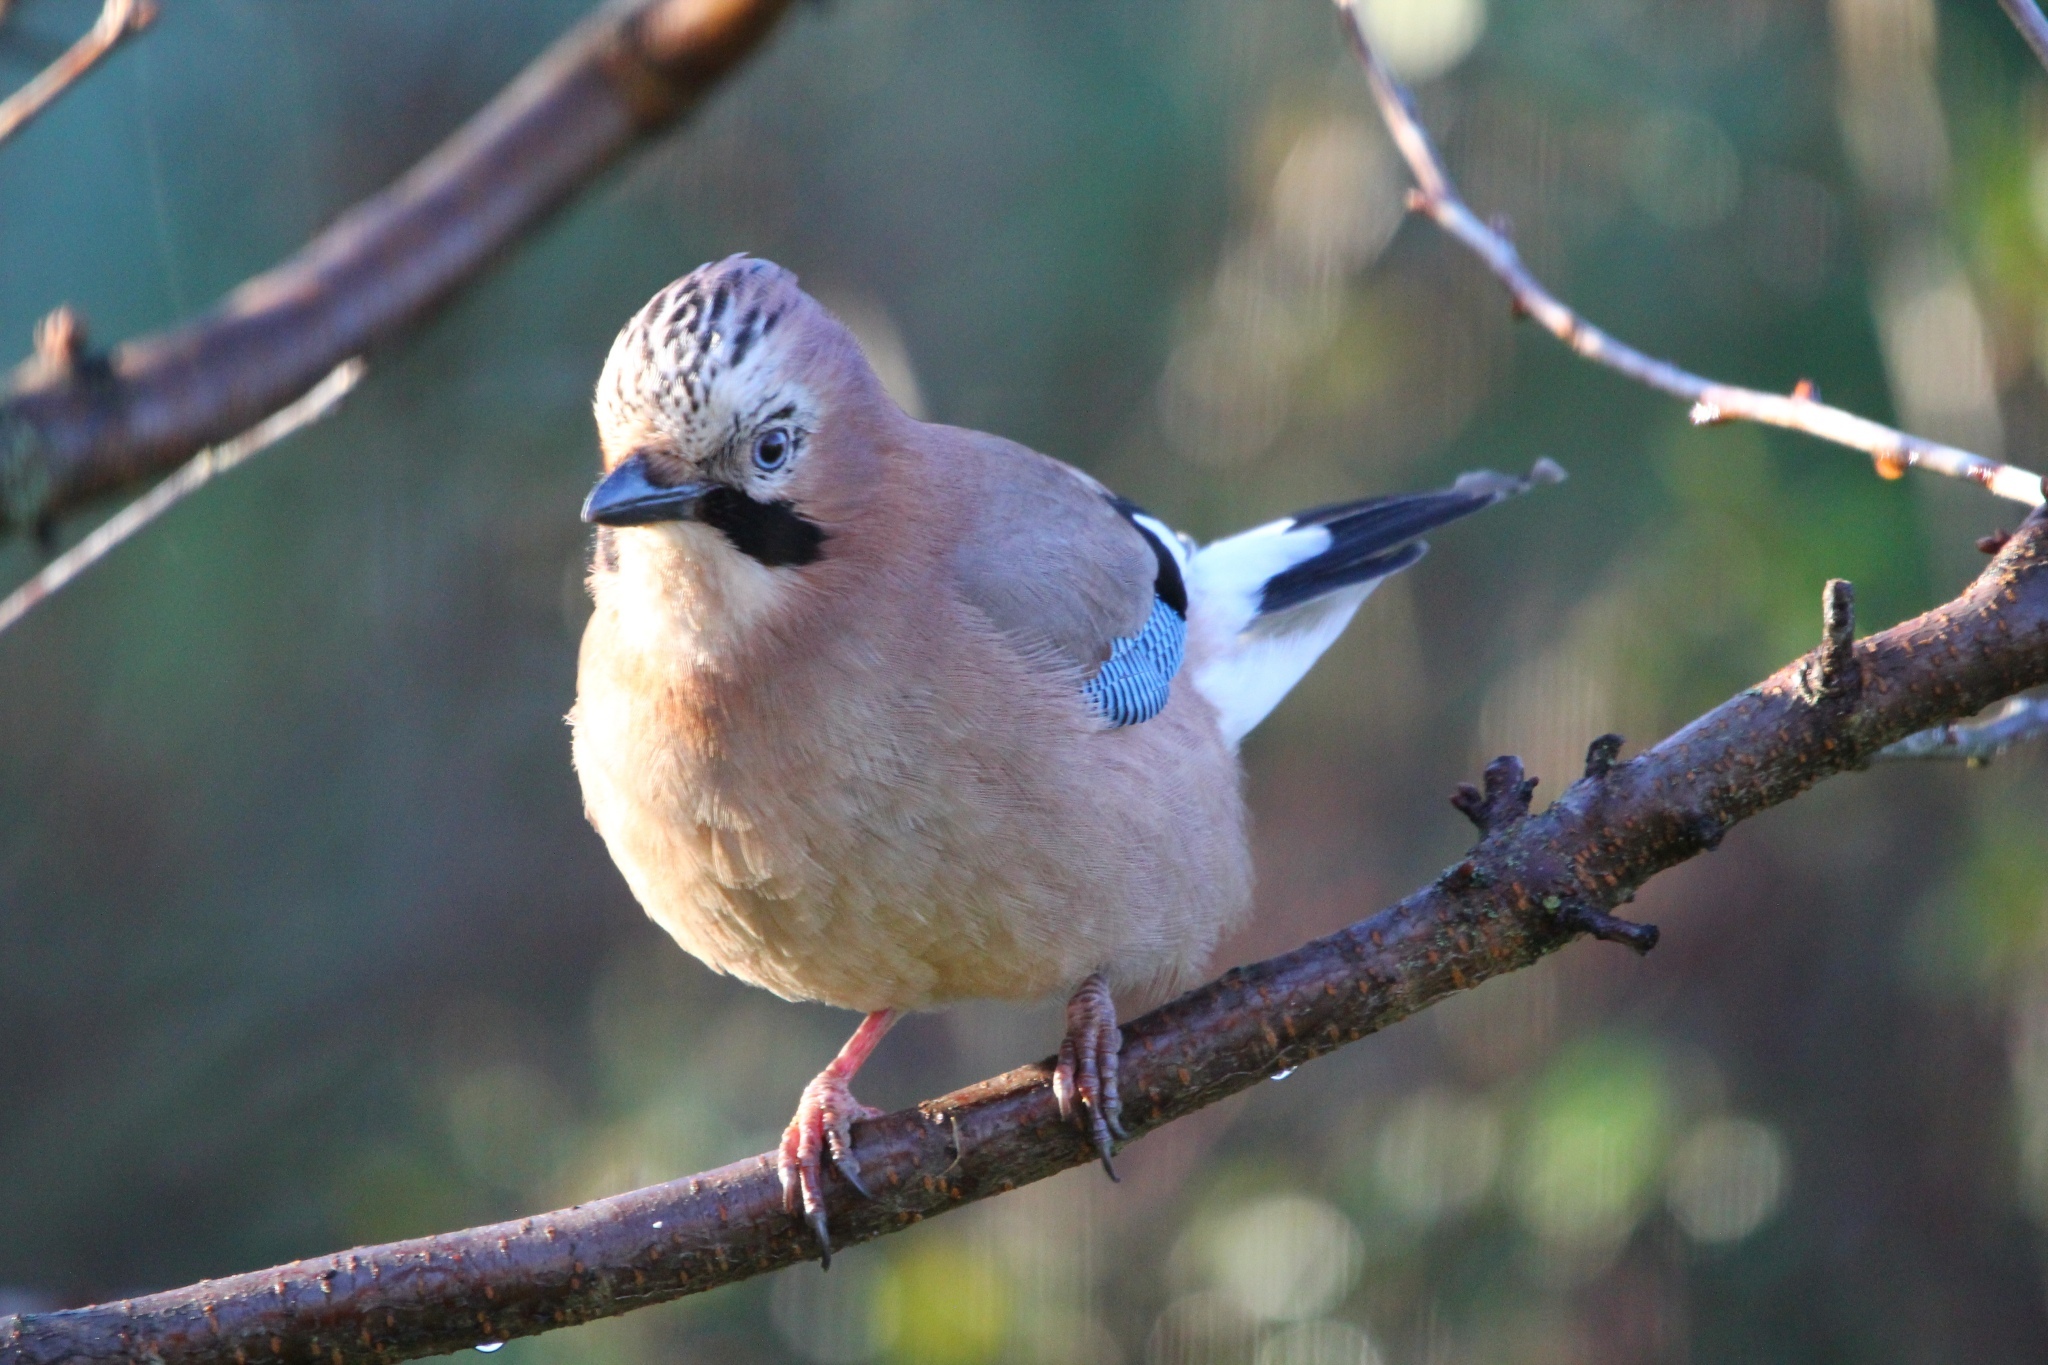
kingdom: Animalia
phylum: Chordata
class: Aves
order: Passeriformes
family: Corvidae
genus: Garrulus
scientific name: Garrulus glandarius
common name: Eurasian jay
